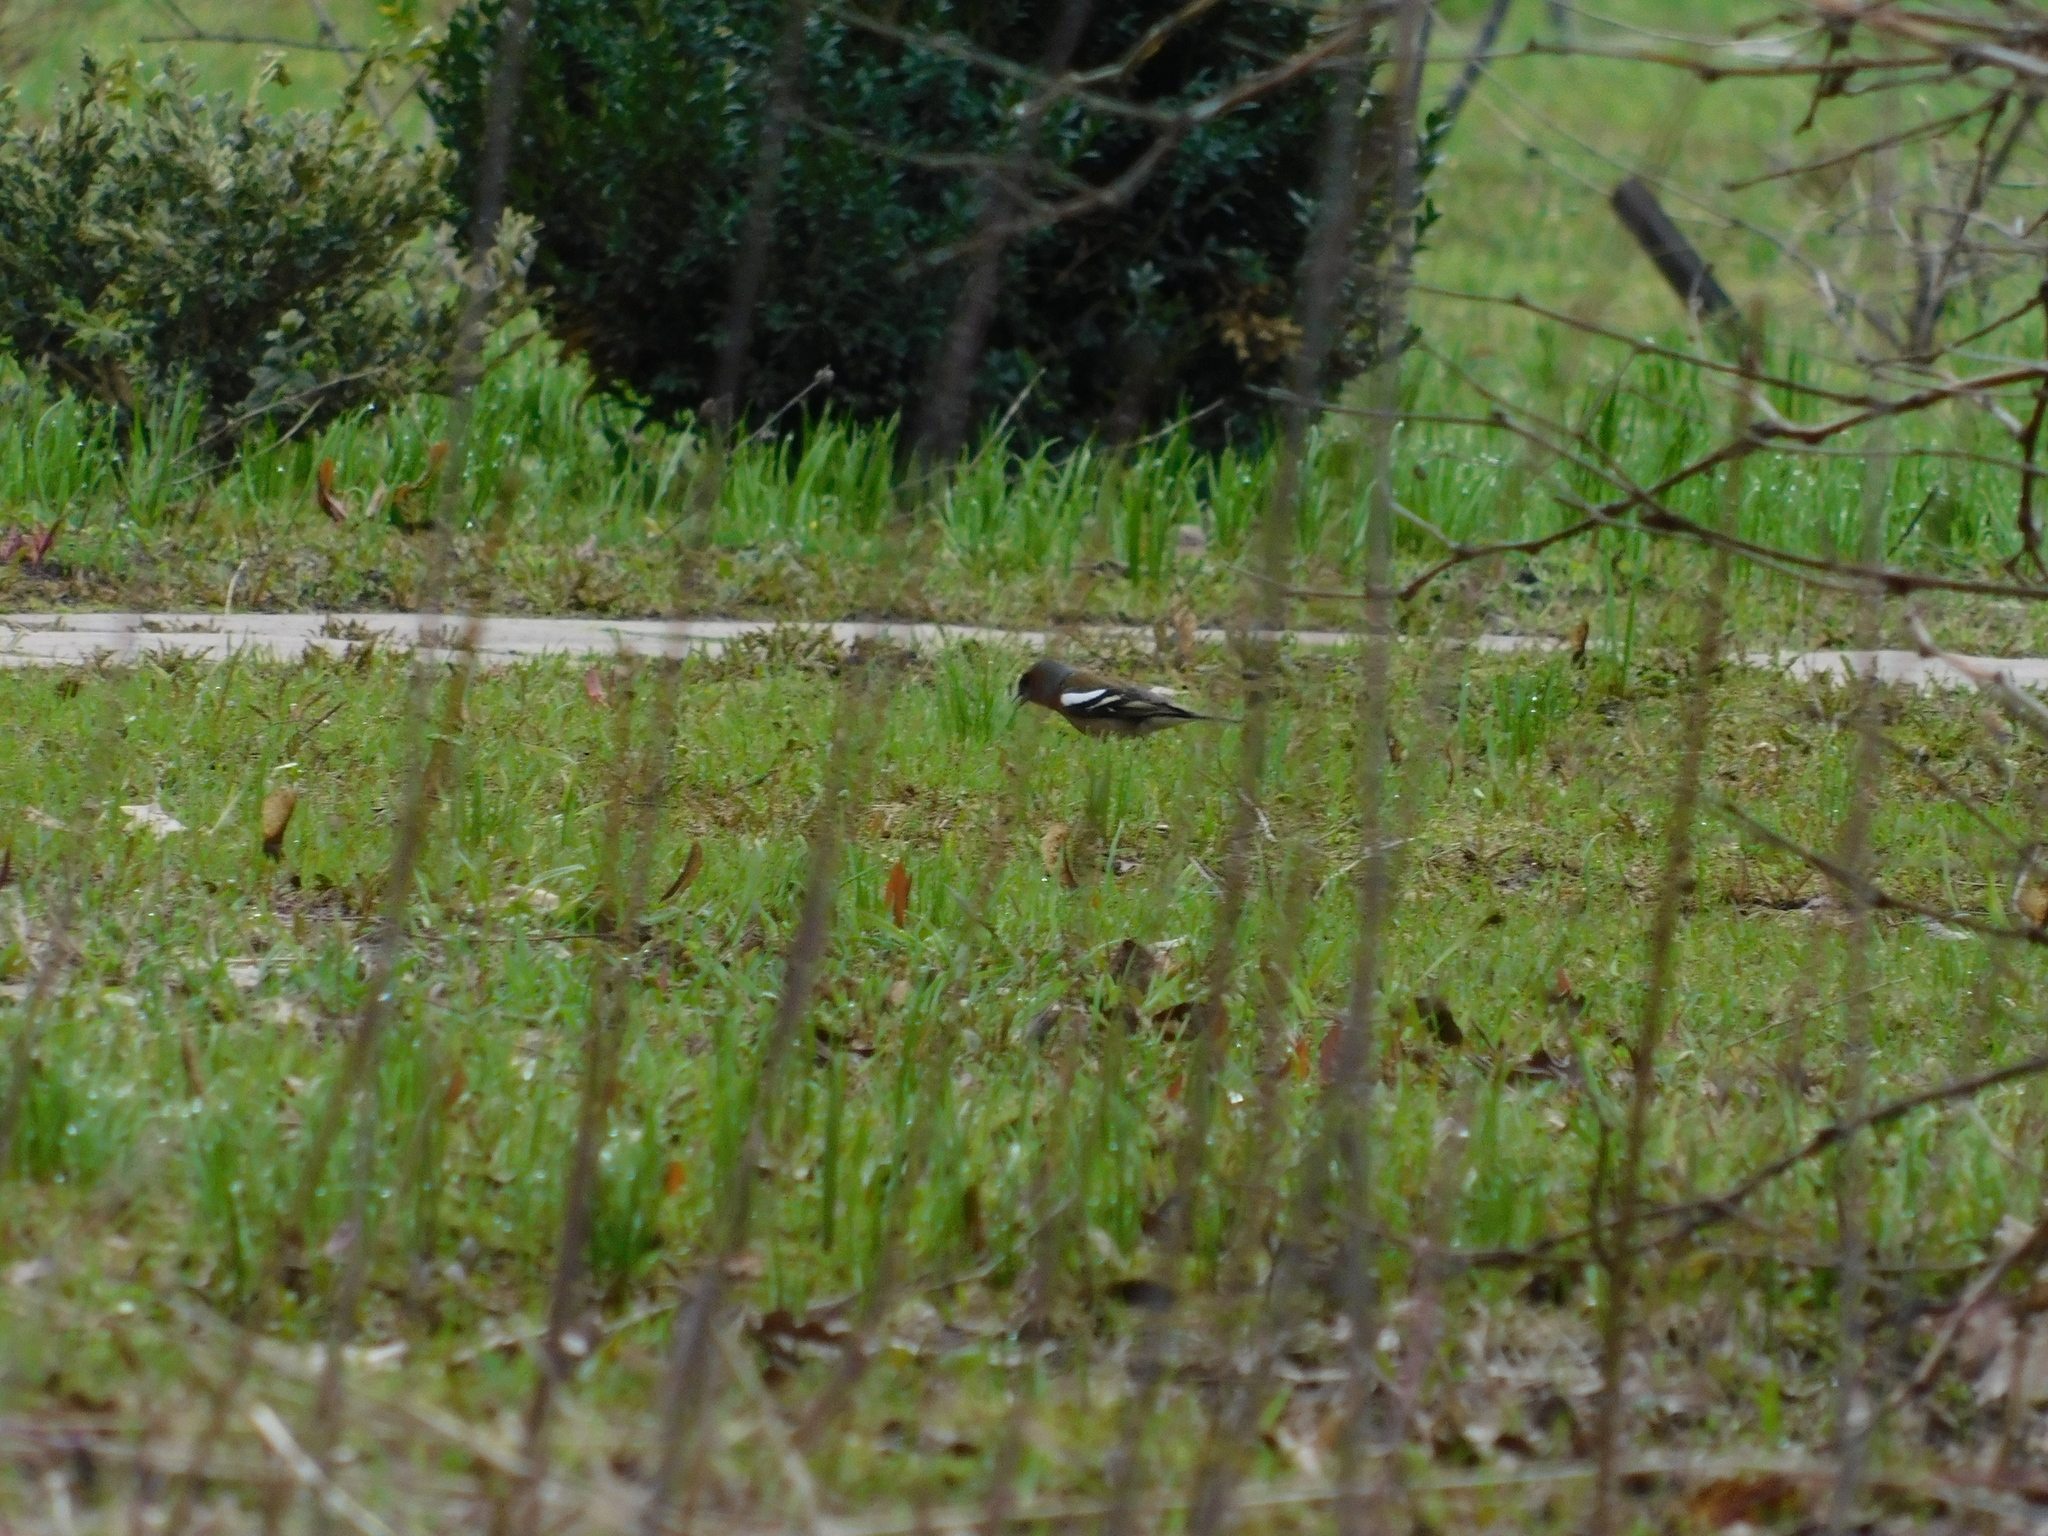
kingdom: Animalia
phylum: Chordata
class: Aves
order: Passeriformes
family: Fringillidae
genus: Fringilla
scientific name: Fringilla coelebs
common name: Common chaffinch
